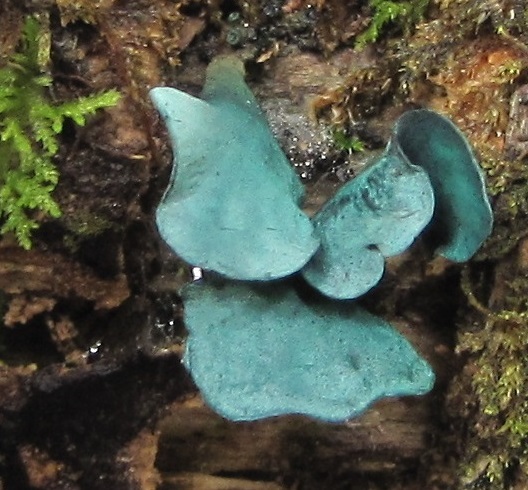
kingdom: Fungi
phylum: Ascomycota
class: Leotiomycetes
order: Helotiales
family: Chlorociboriaceae
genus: Chlorociboria
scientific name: Chlorociboria aeruginascens
